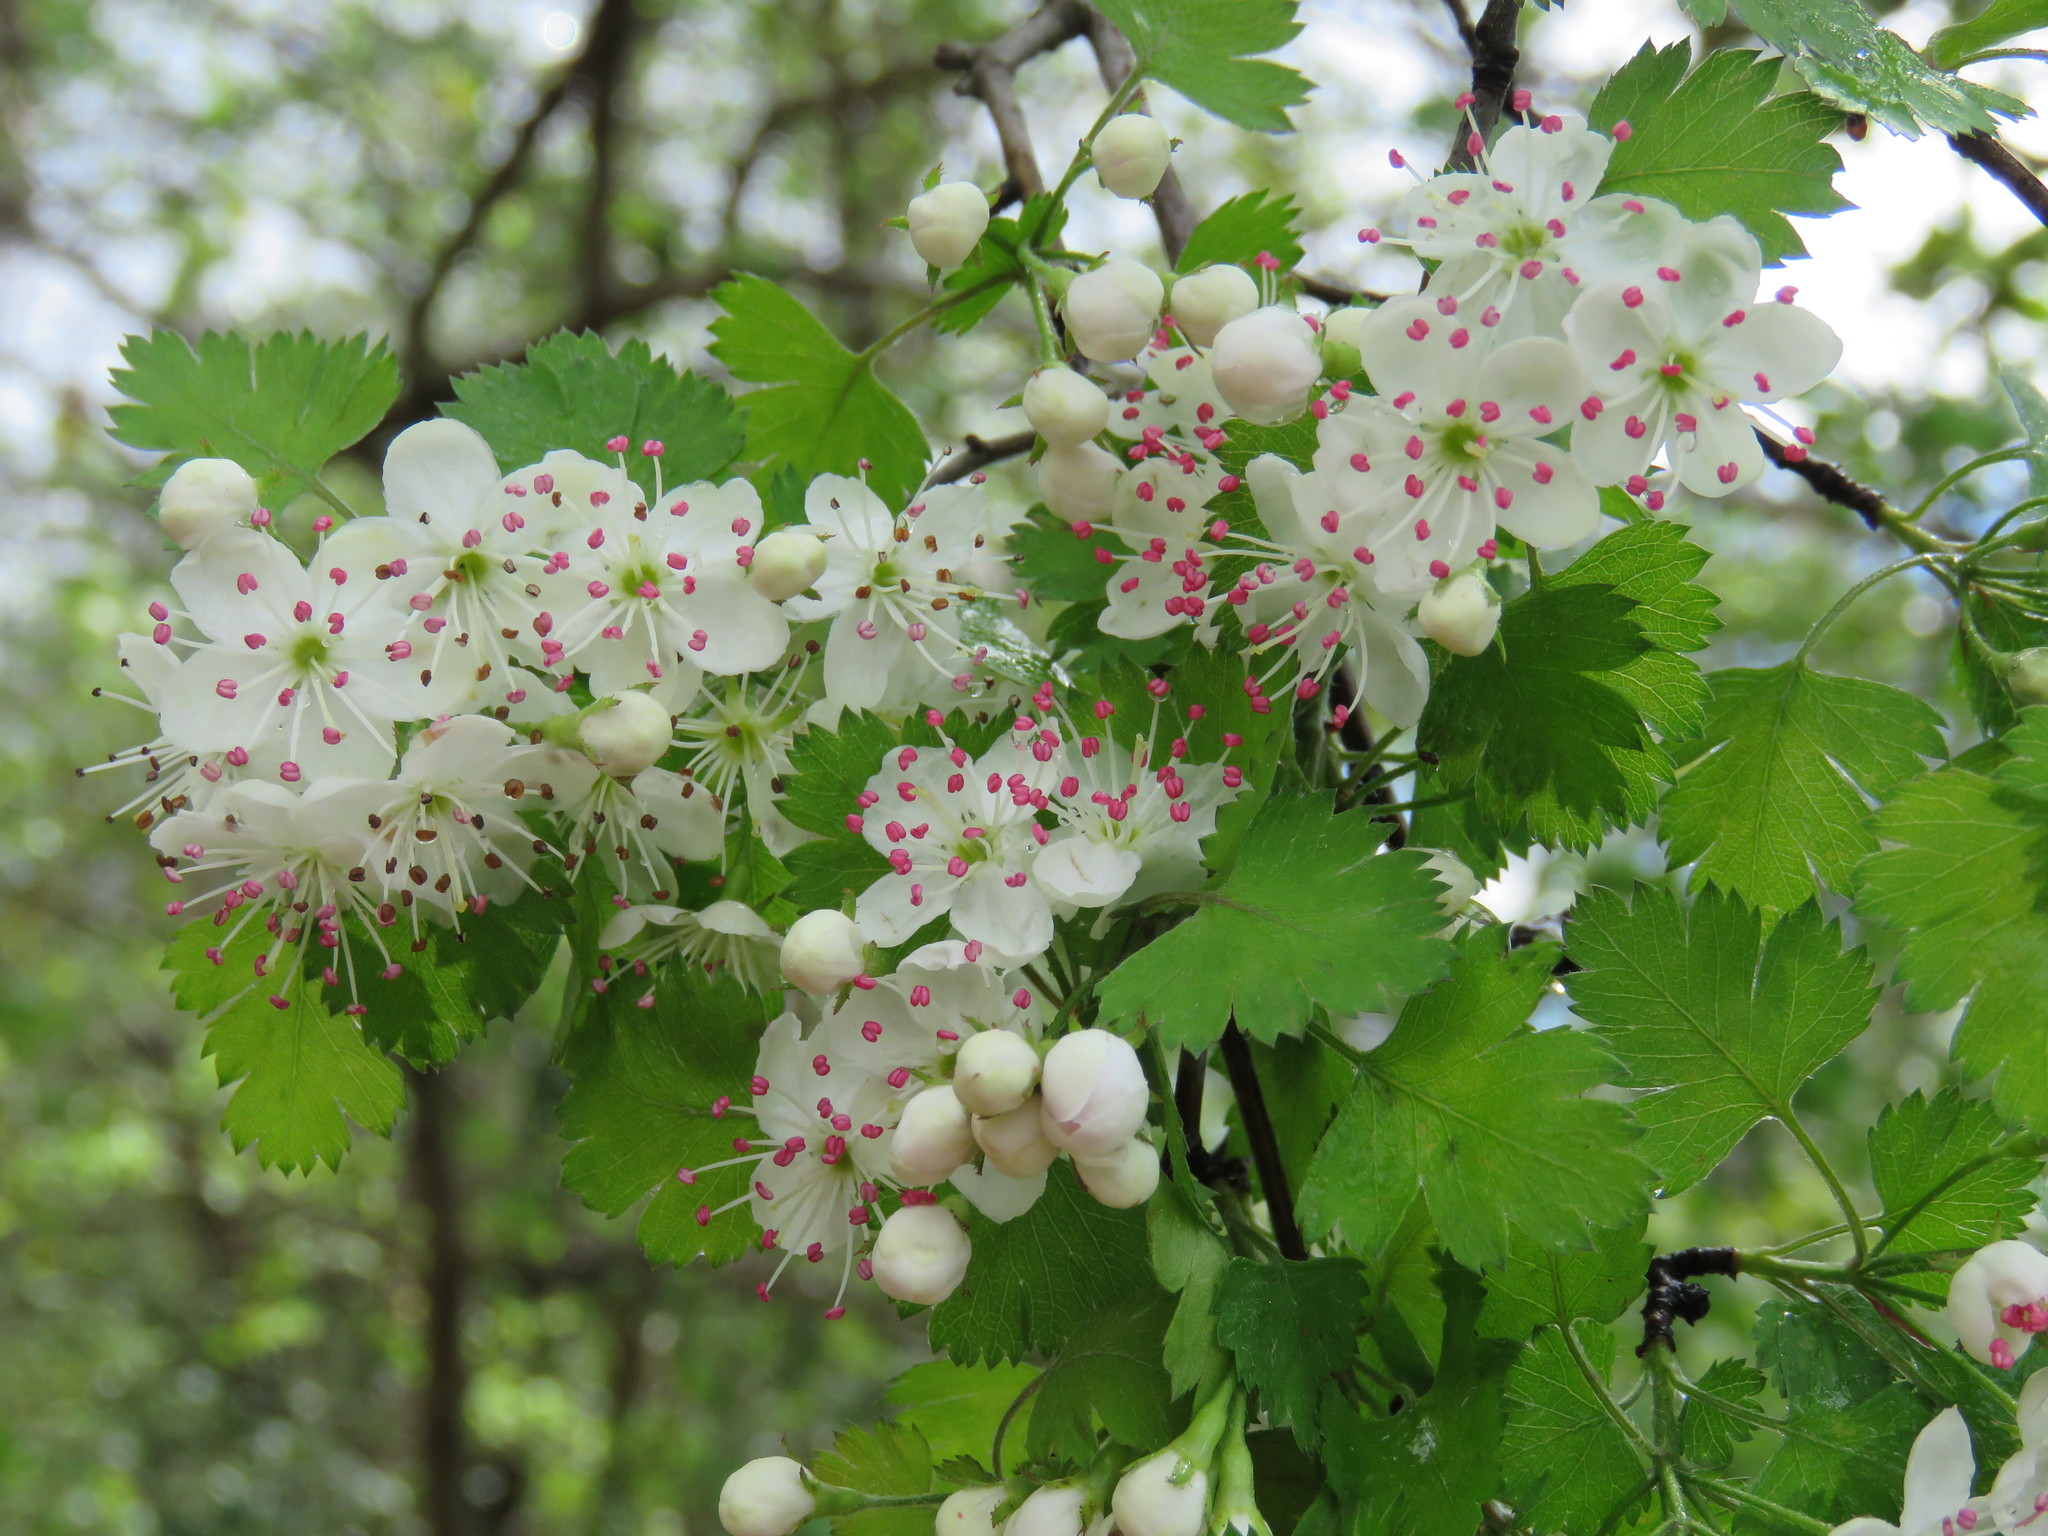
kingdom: Plantae
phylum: Tracheophyta
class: Magnoliopsida
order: Rosales
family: Rosaceae
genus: Crataegus
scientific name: Crataegus marshallii
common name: Parsley-hawthorn
